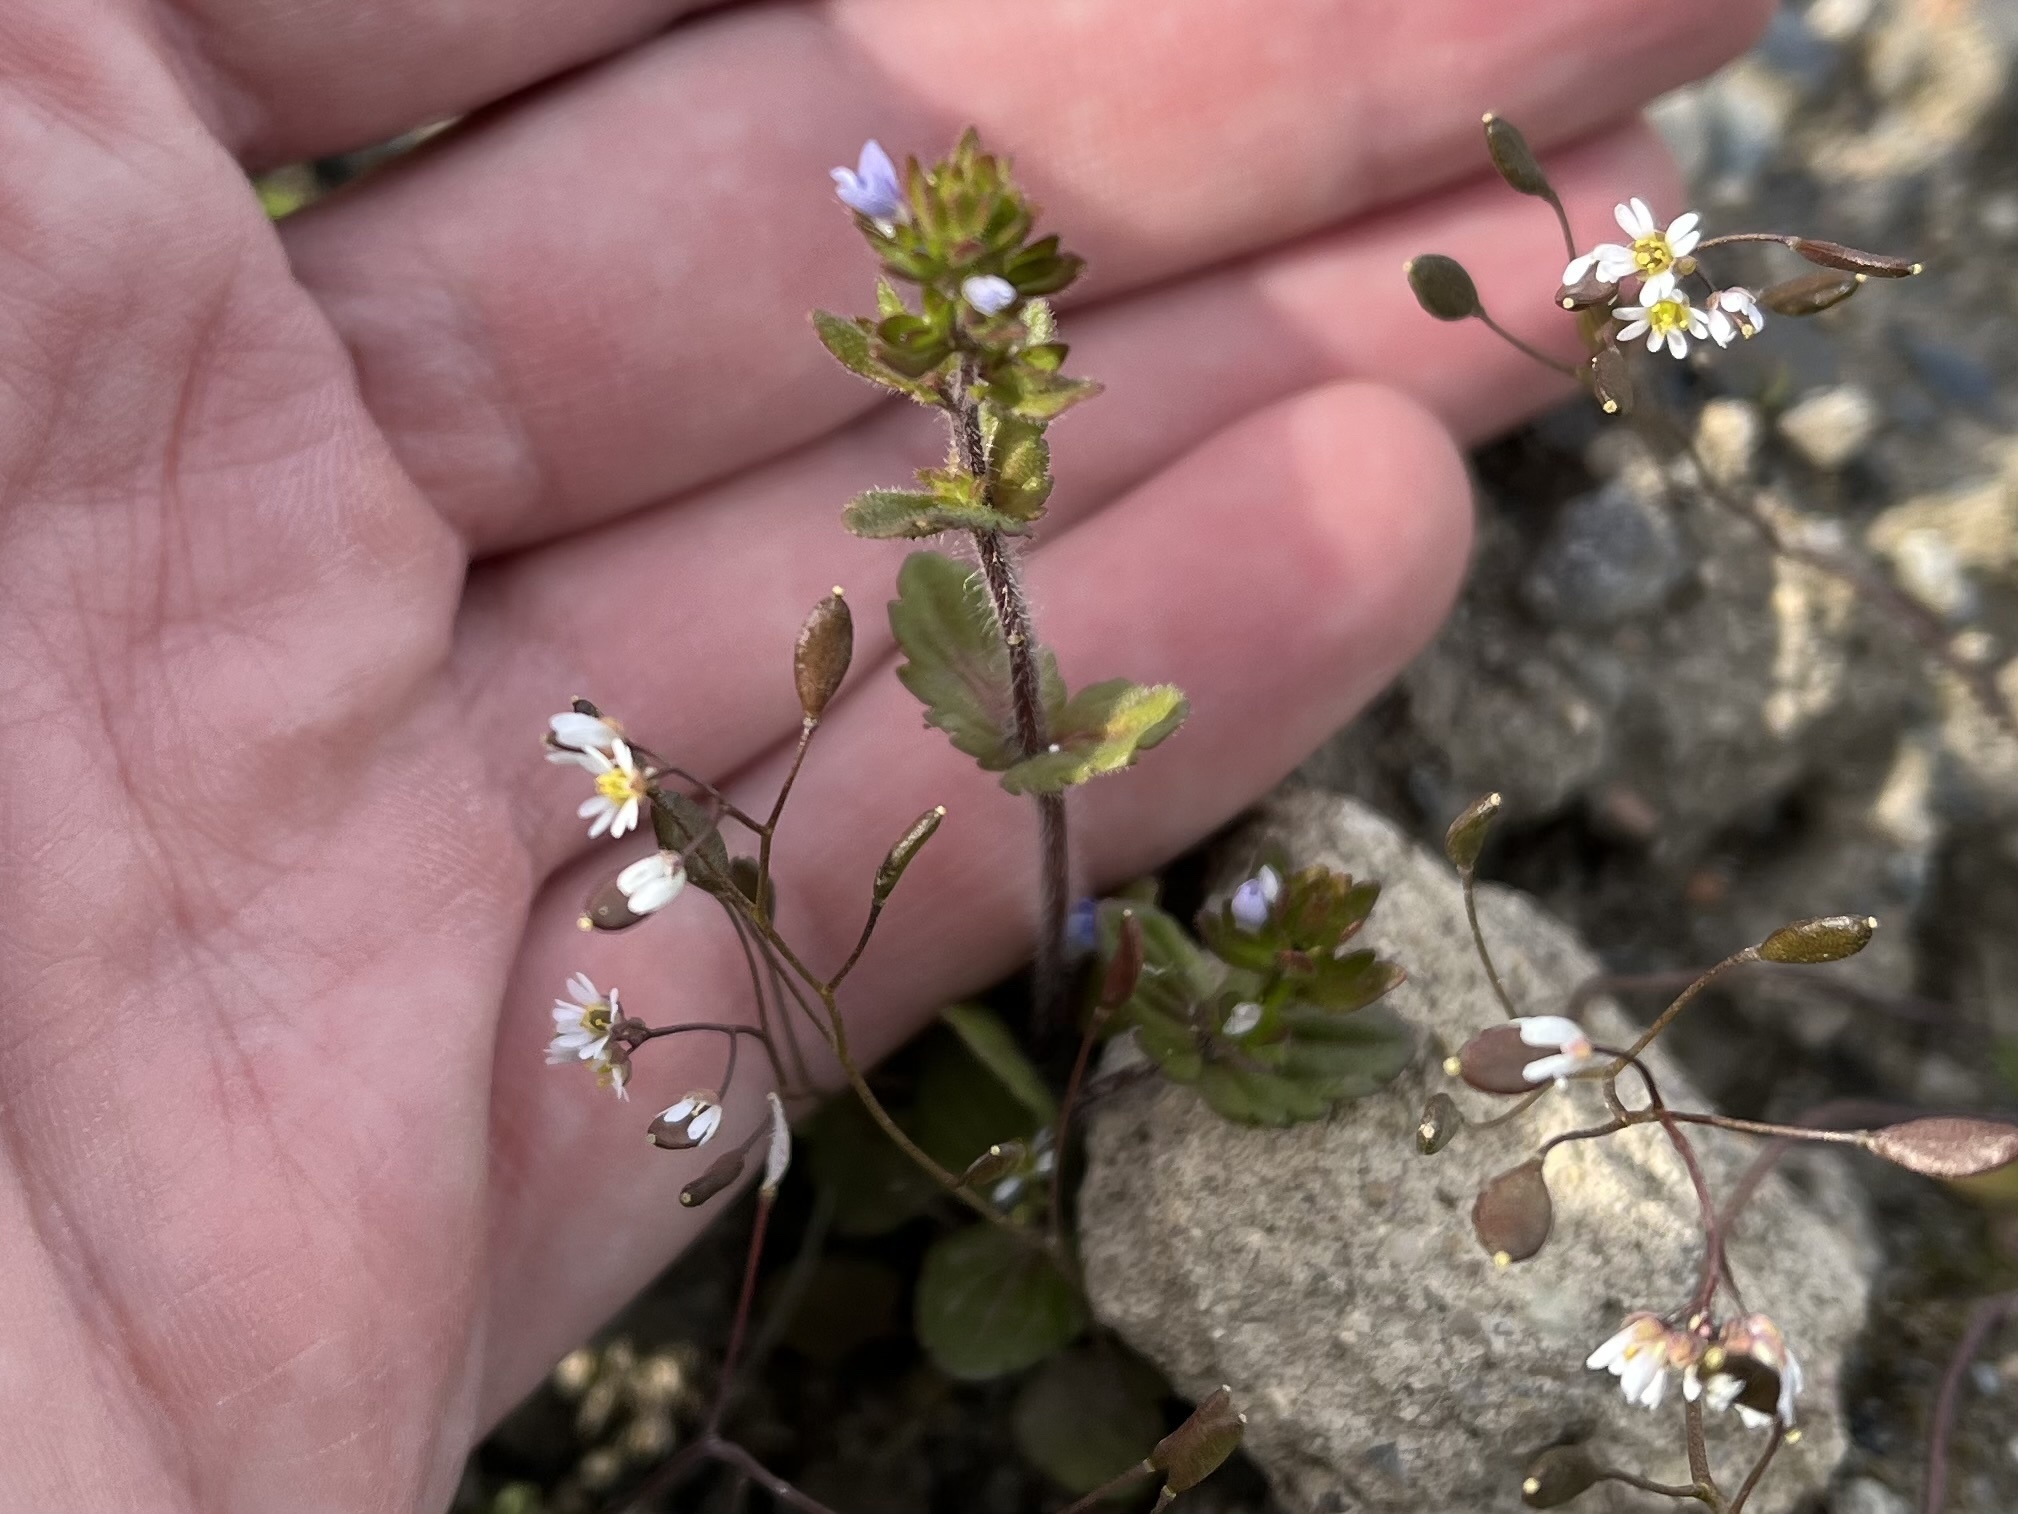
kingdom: Plantae
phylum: Tracheophyta
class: Magnoliopsida
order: Lamiales
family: Plantaginaceae
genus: Veronica
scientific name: Veronica arvensis
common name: Corn speedwell
